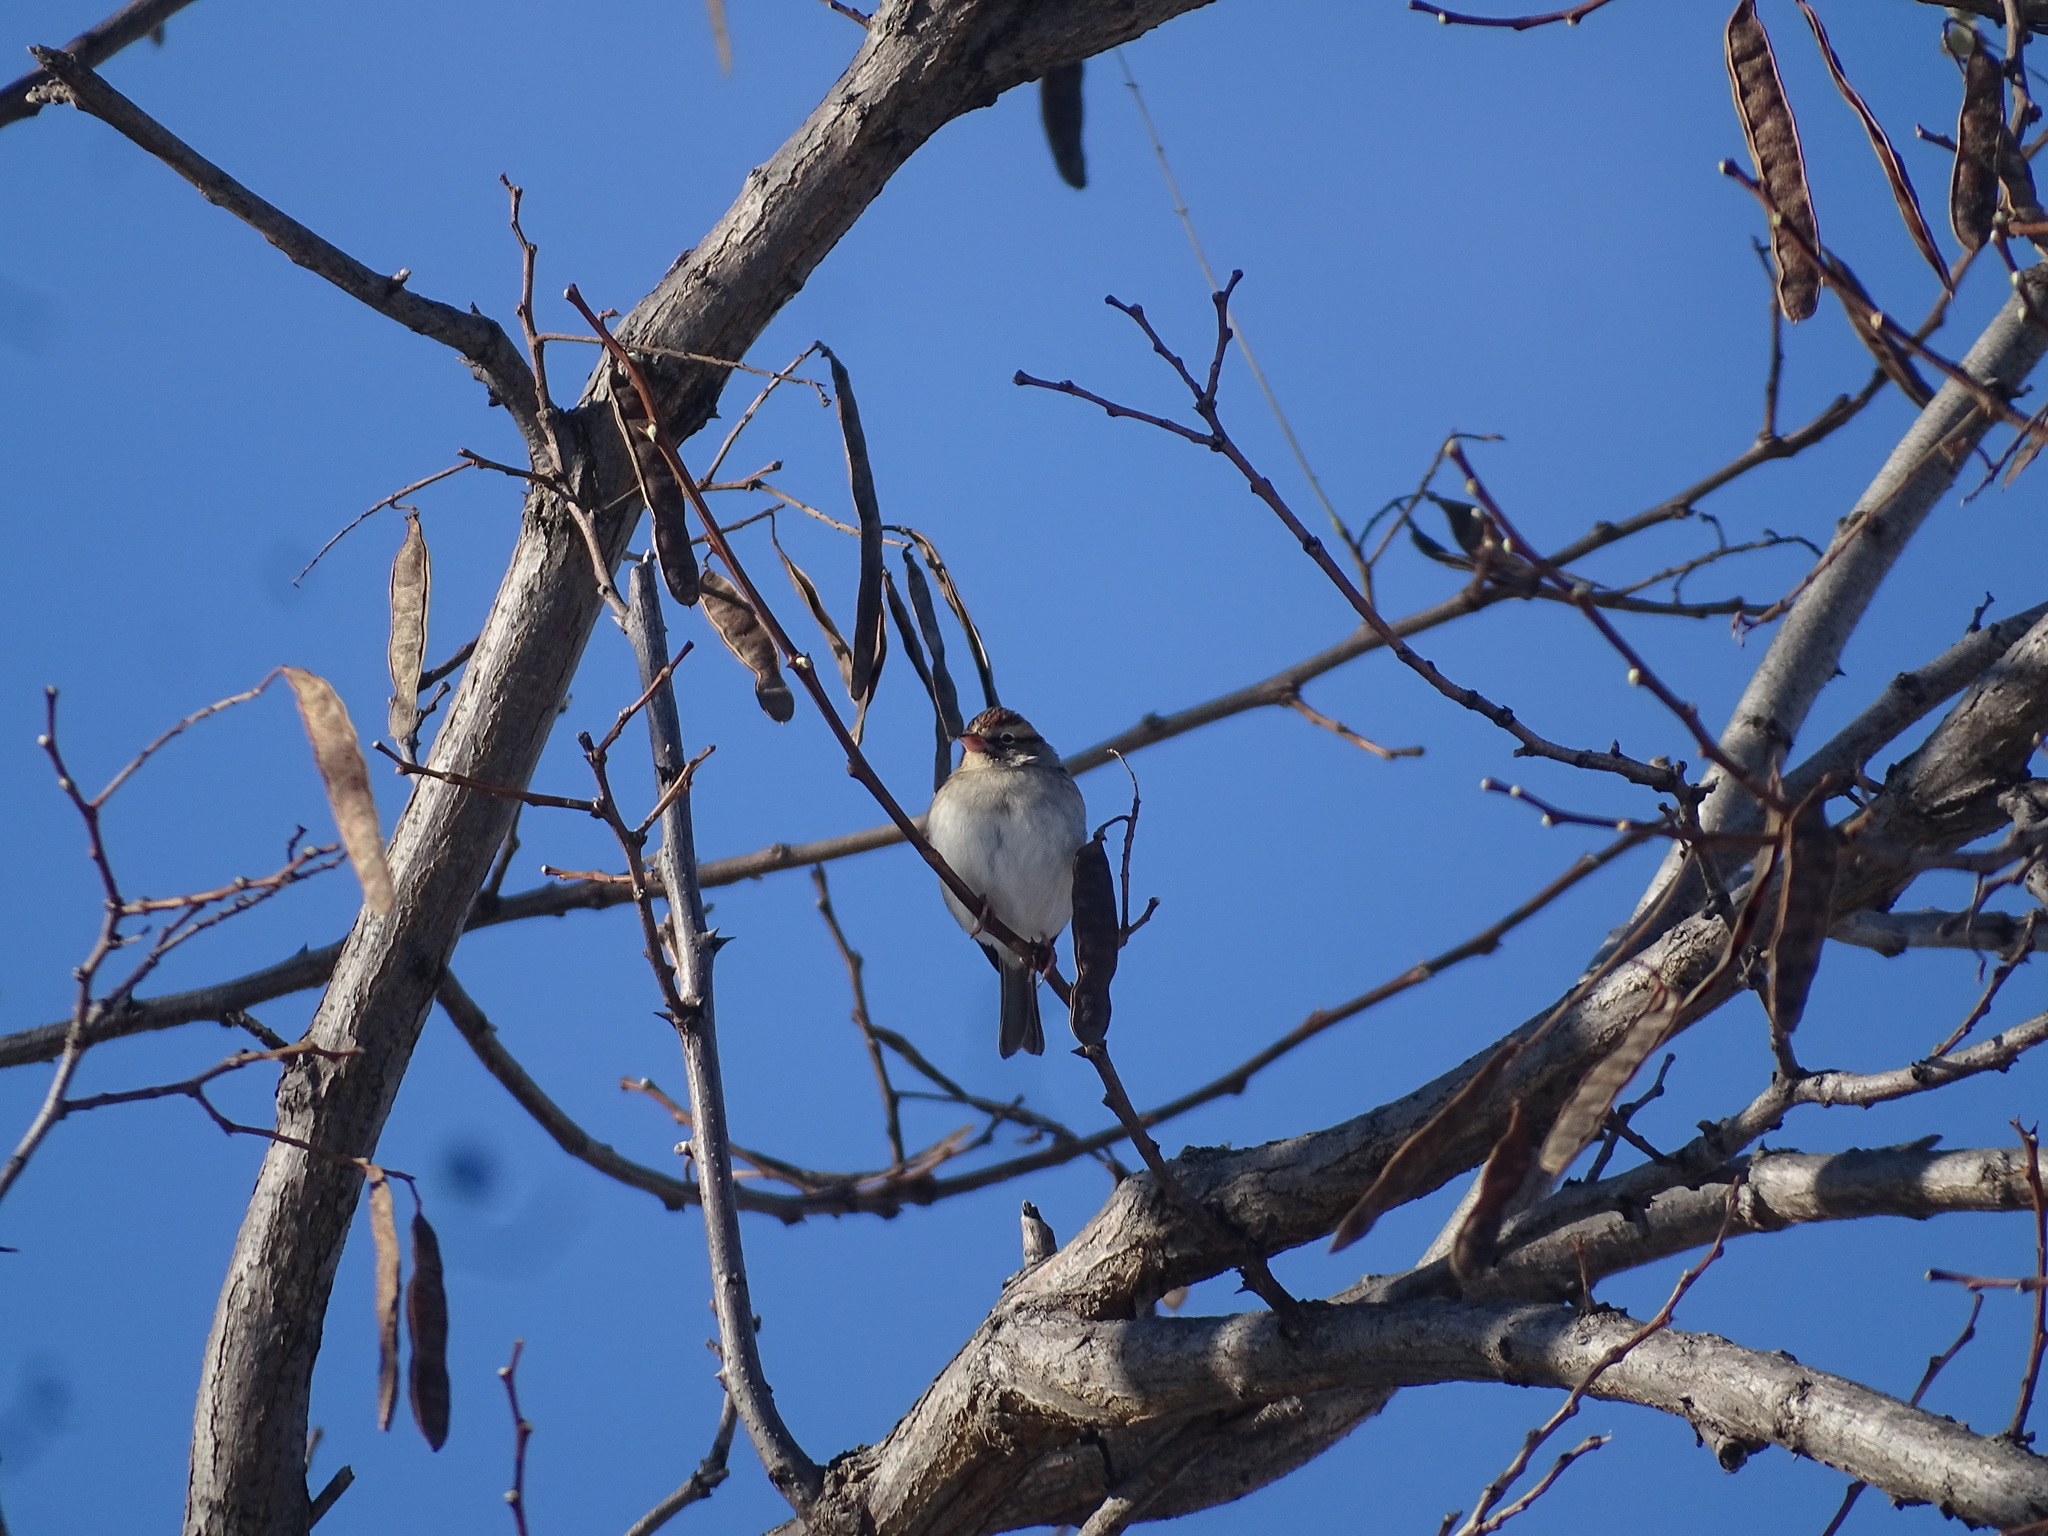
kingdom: Animalia
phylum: Chordata
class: Aves
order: Passeriformes
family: Passerellidae
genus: Spizella
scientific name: Spizella passerina
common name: Chipping sparrow
